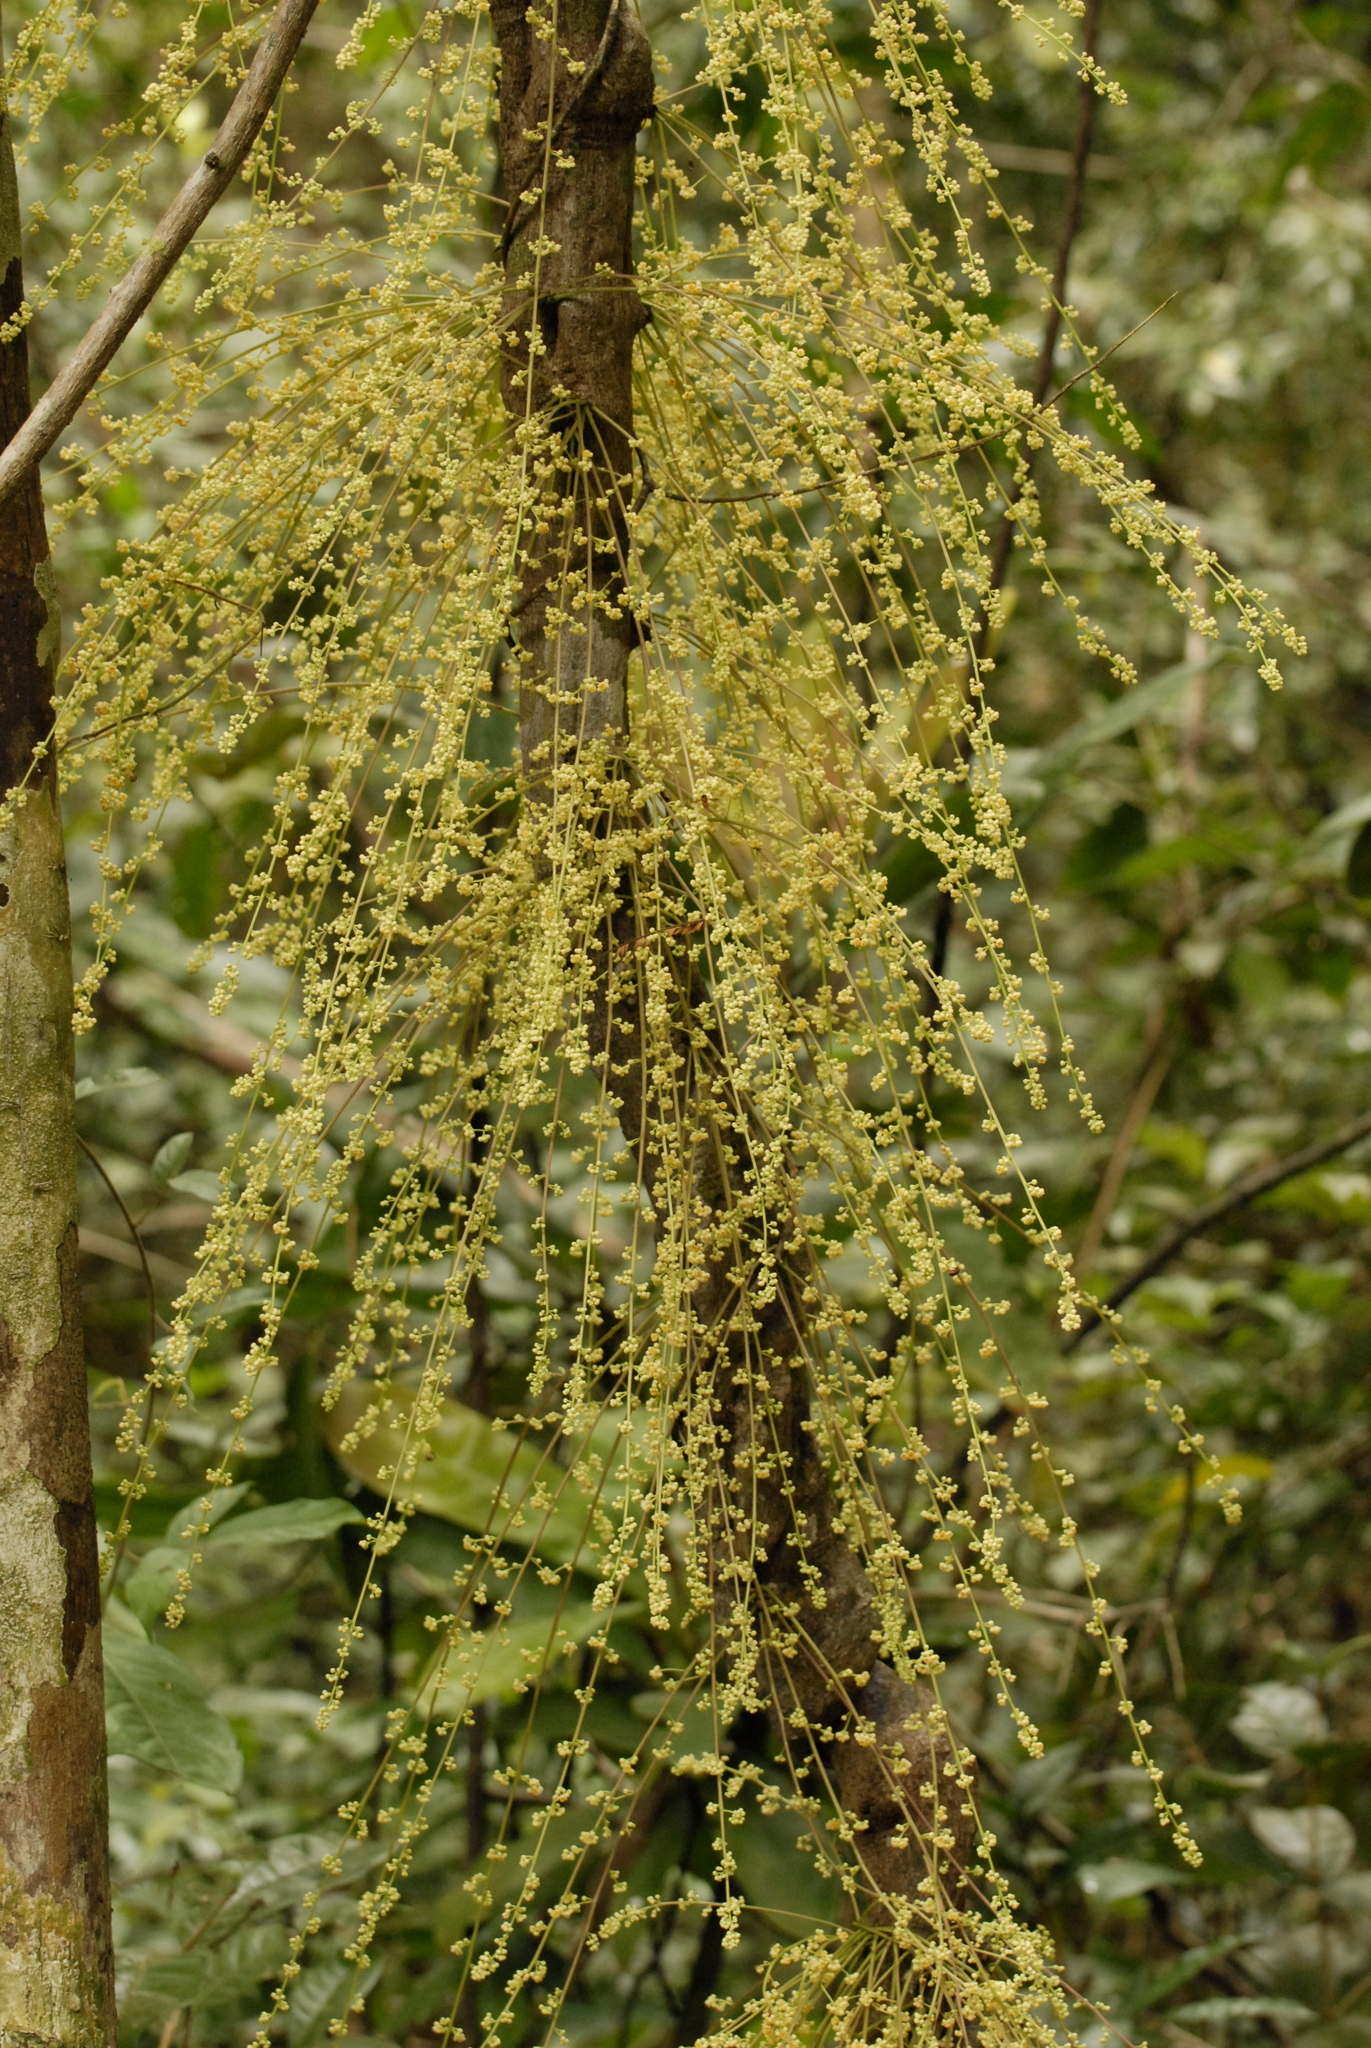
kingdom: Plantae
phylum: Tracheophyta
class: Magnoliopsida
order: Ranunculales
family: Menispermaceae
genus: Diploclisia
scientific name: Diploclisia glaucescens
